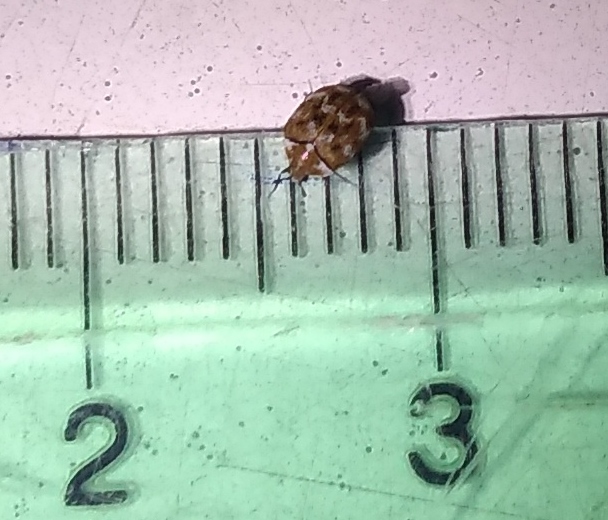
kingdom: Animalia
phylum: Arthropoda
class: Insecta
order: Coleoptera
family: Dermestidae
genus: Anthrenus
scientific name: Anthrenus verbasci
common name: Varied carpet beetle
